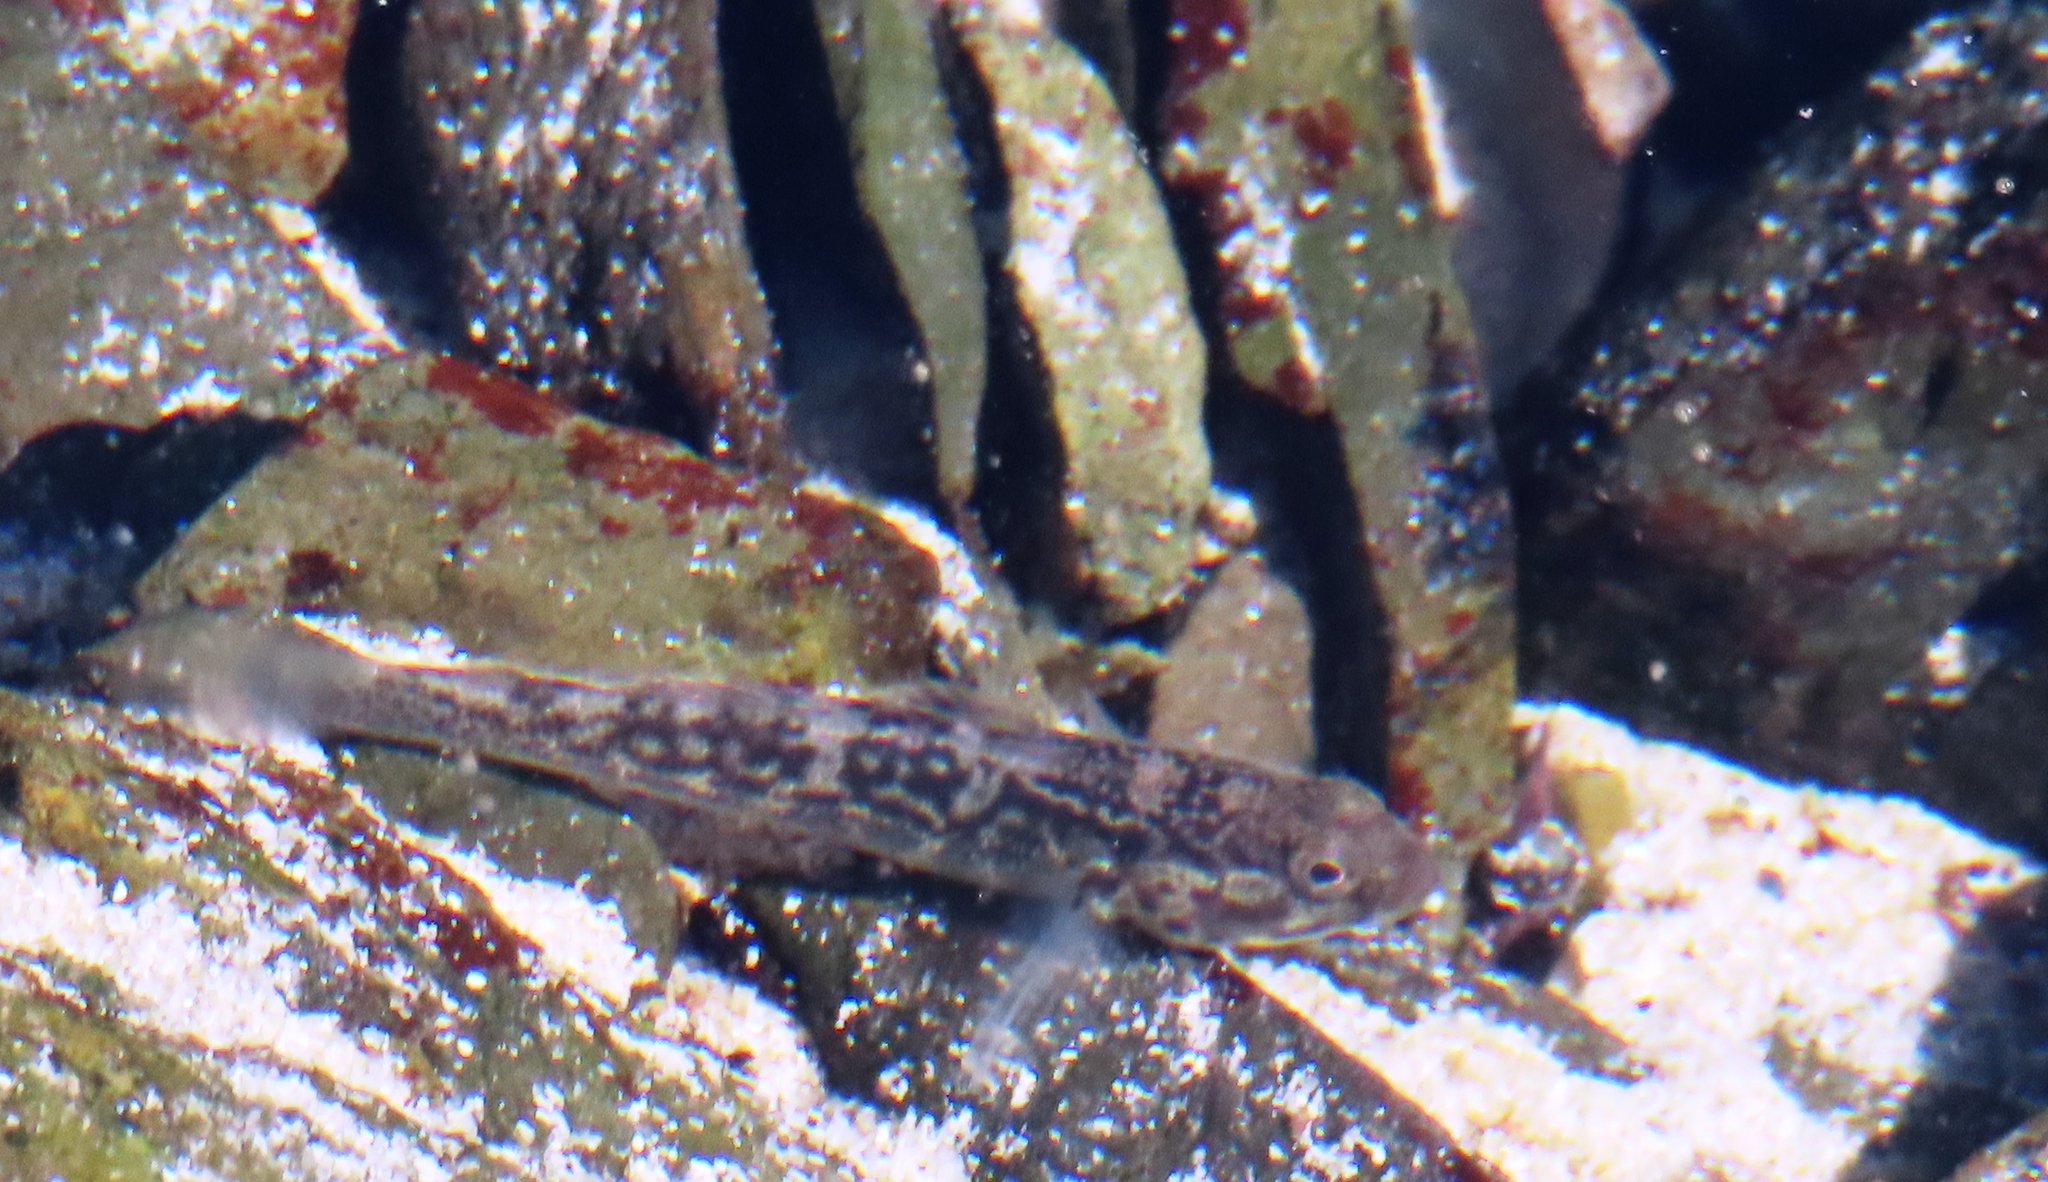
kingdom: Animalia
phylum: Chordata
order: Perciformes
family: Gobiidae
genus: Caffrogobius
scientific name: Caffrogobius caffer
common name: Banded goby
